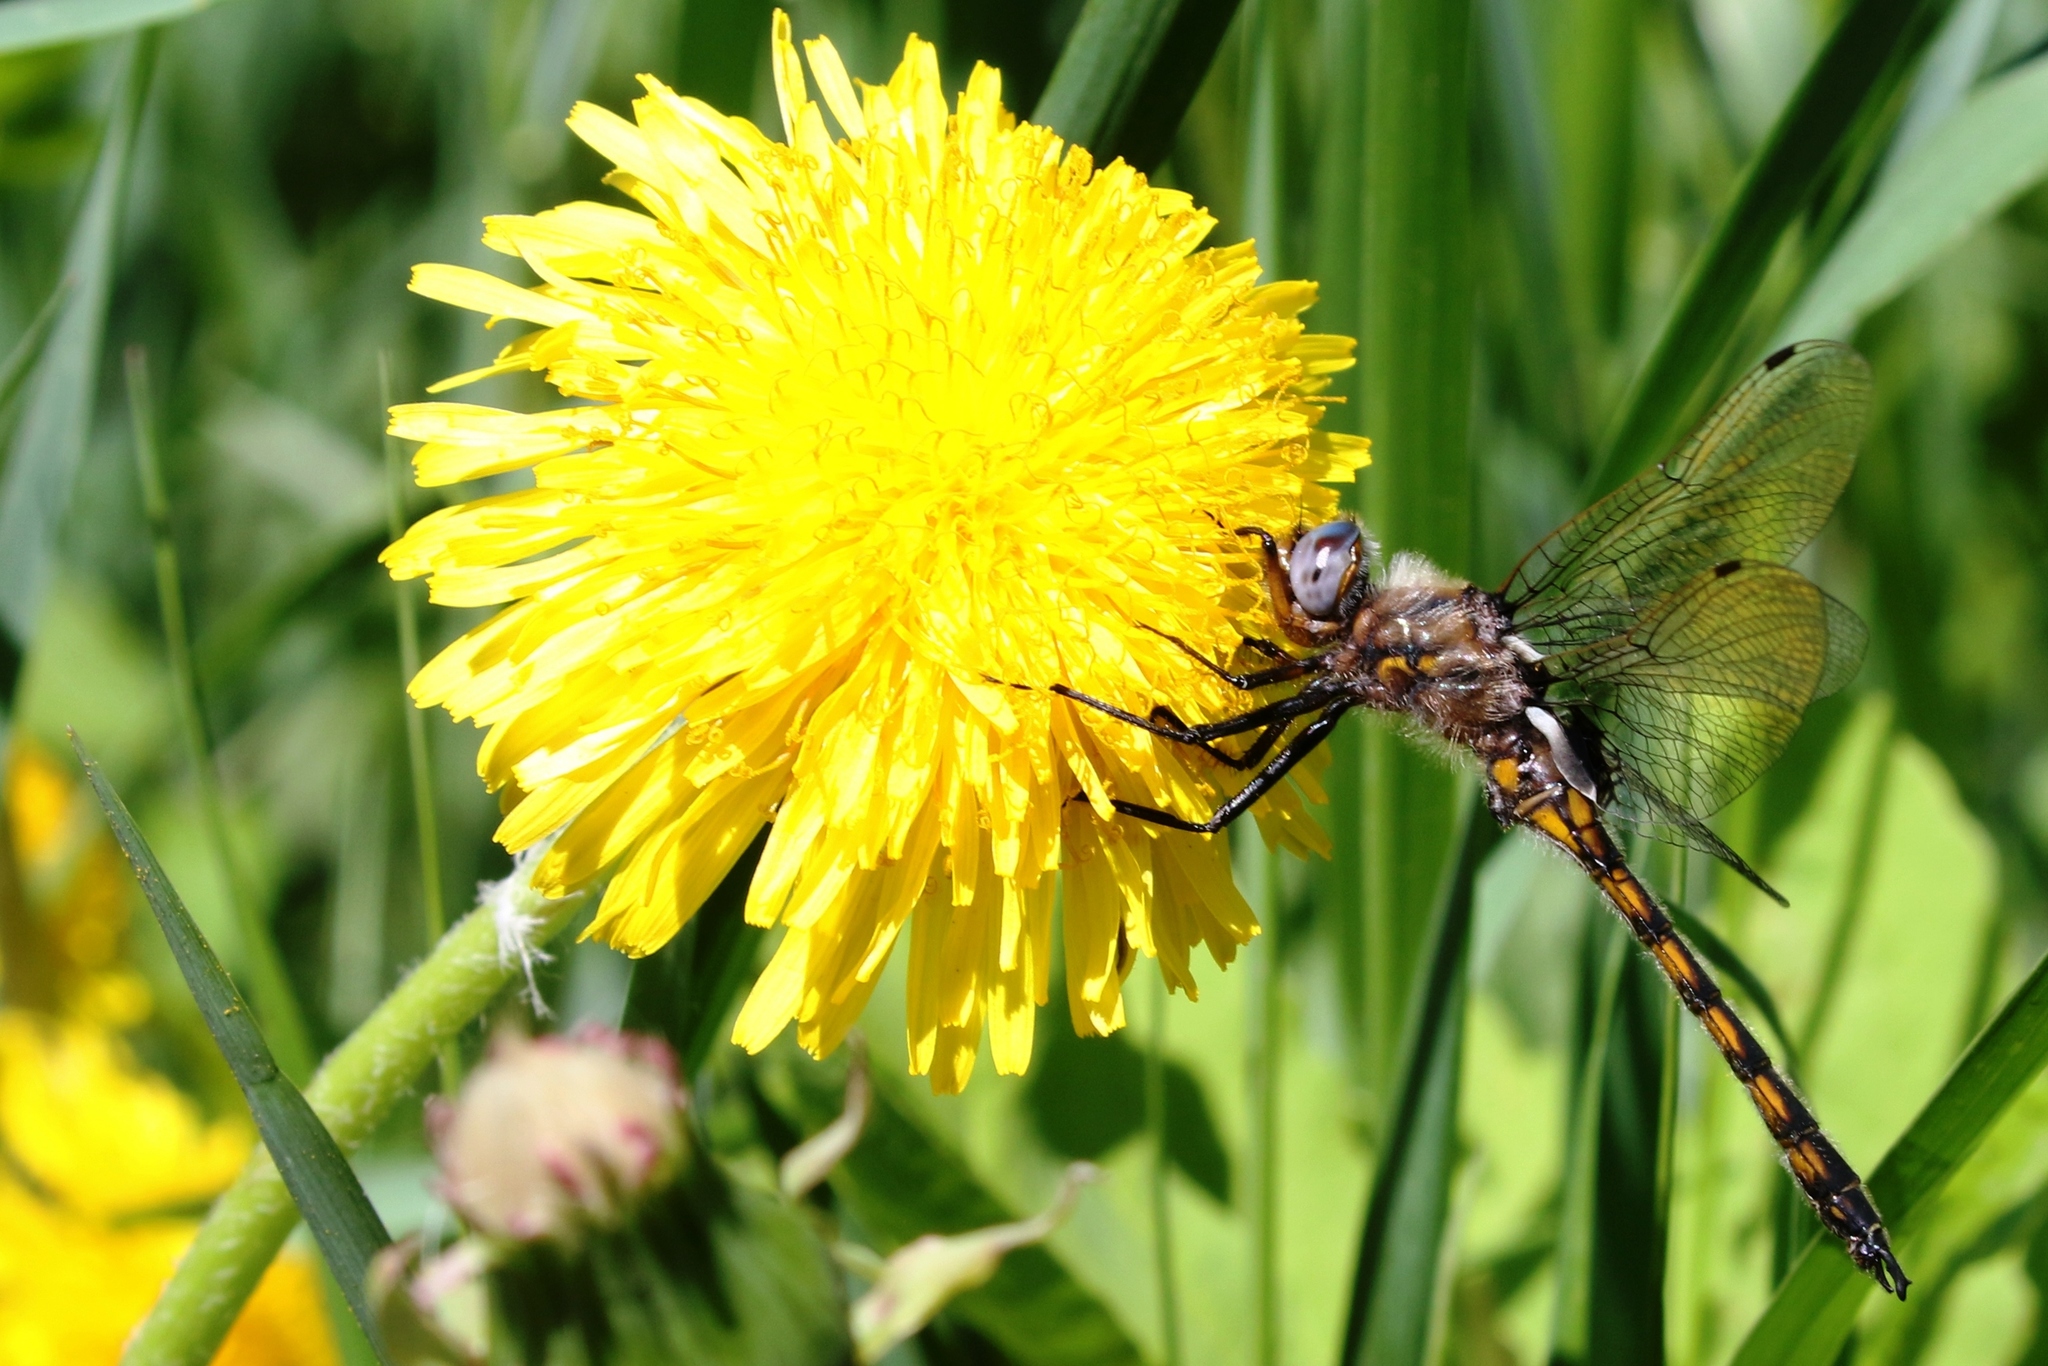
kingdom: Animalia
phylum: Arthropoda
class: Insecta
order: Odonata
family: Corduliidae
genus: Epitheca
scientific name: Epitheca canis
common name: Beaverpond baskettail
